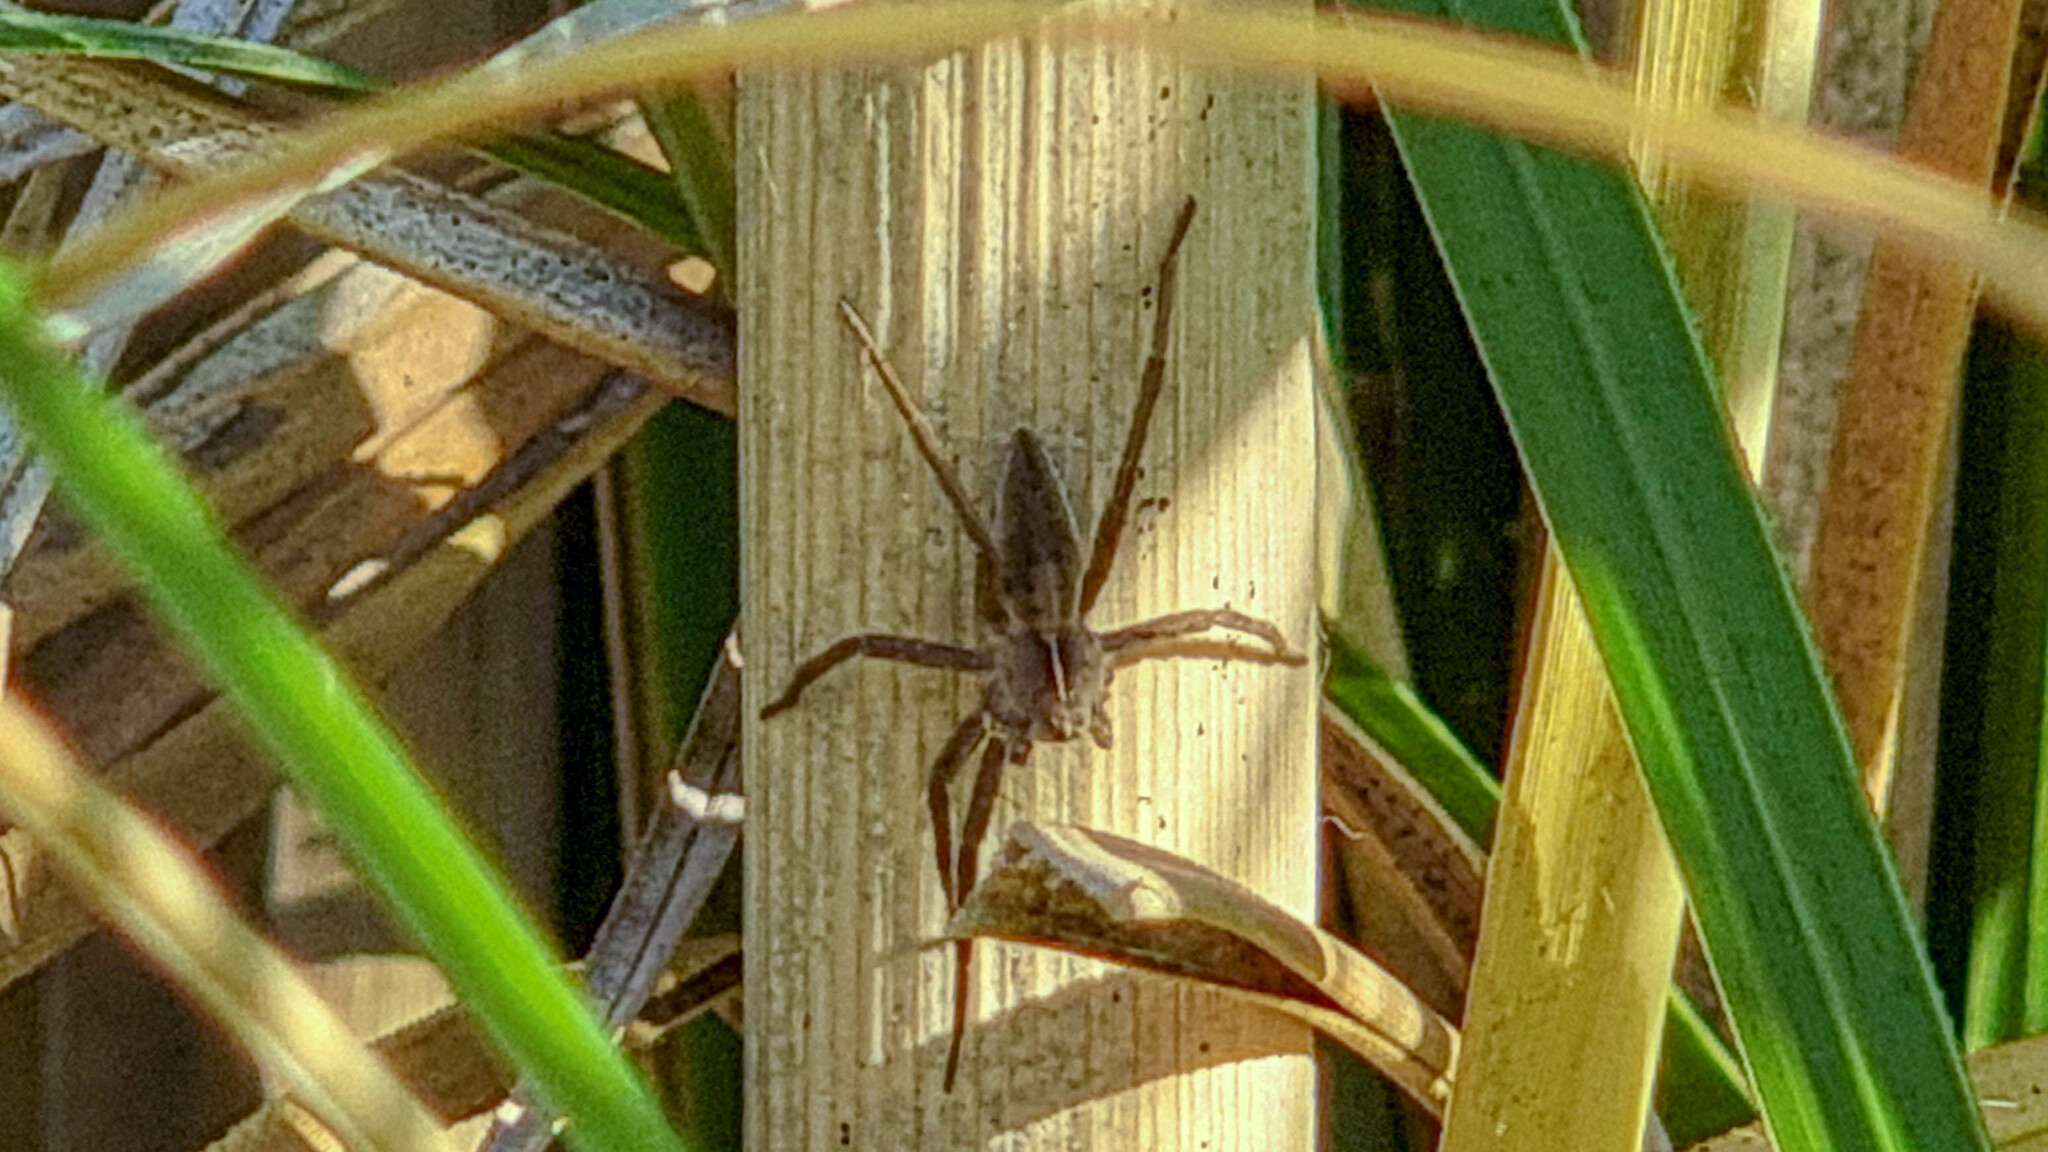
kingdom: Animalia
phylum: Arthropoda
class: Arachnida
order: Araneae
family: Pisauridae
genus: Pisaura
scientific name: Pisaura mirabilis
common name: Tent spider
